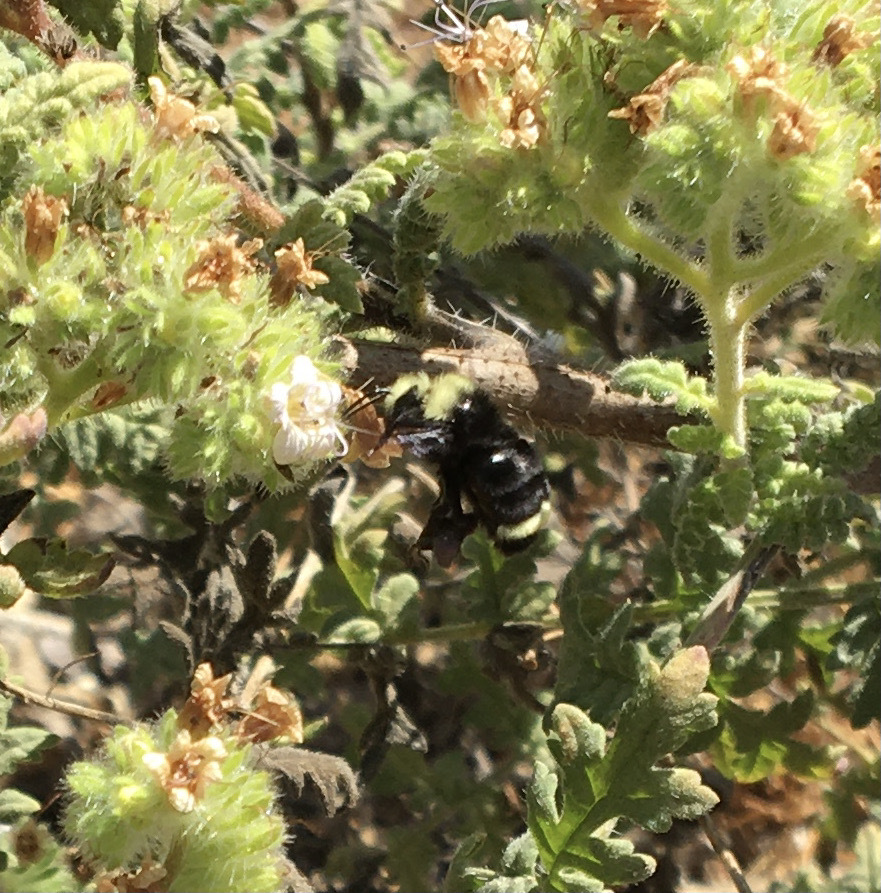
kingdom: Animalia
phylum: Arthropoda
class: Insecta
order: Hymenoptera
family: Apidae
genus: Bombus
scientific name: Bombus vosnesenskii
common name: Vosnesensky bumble bee
